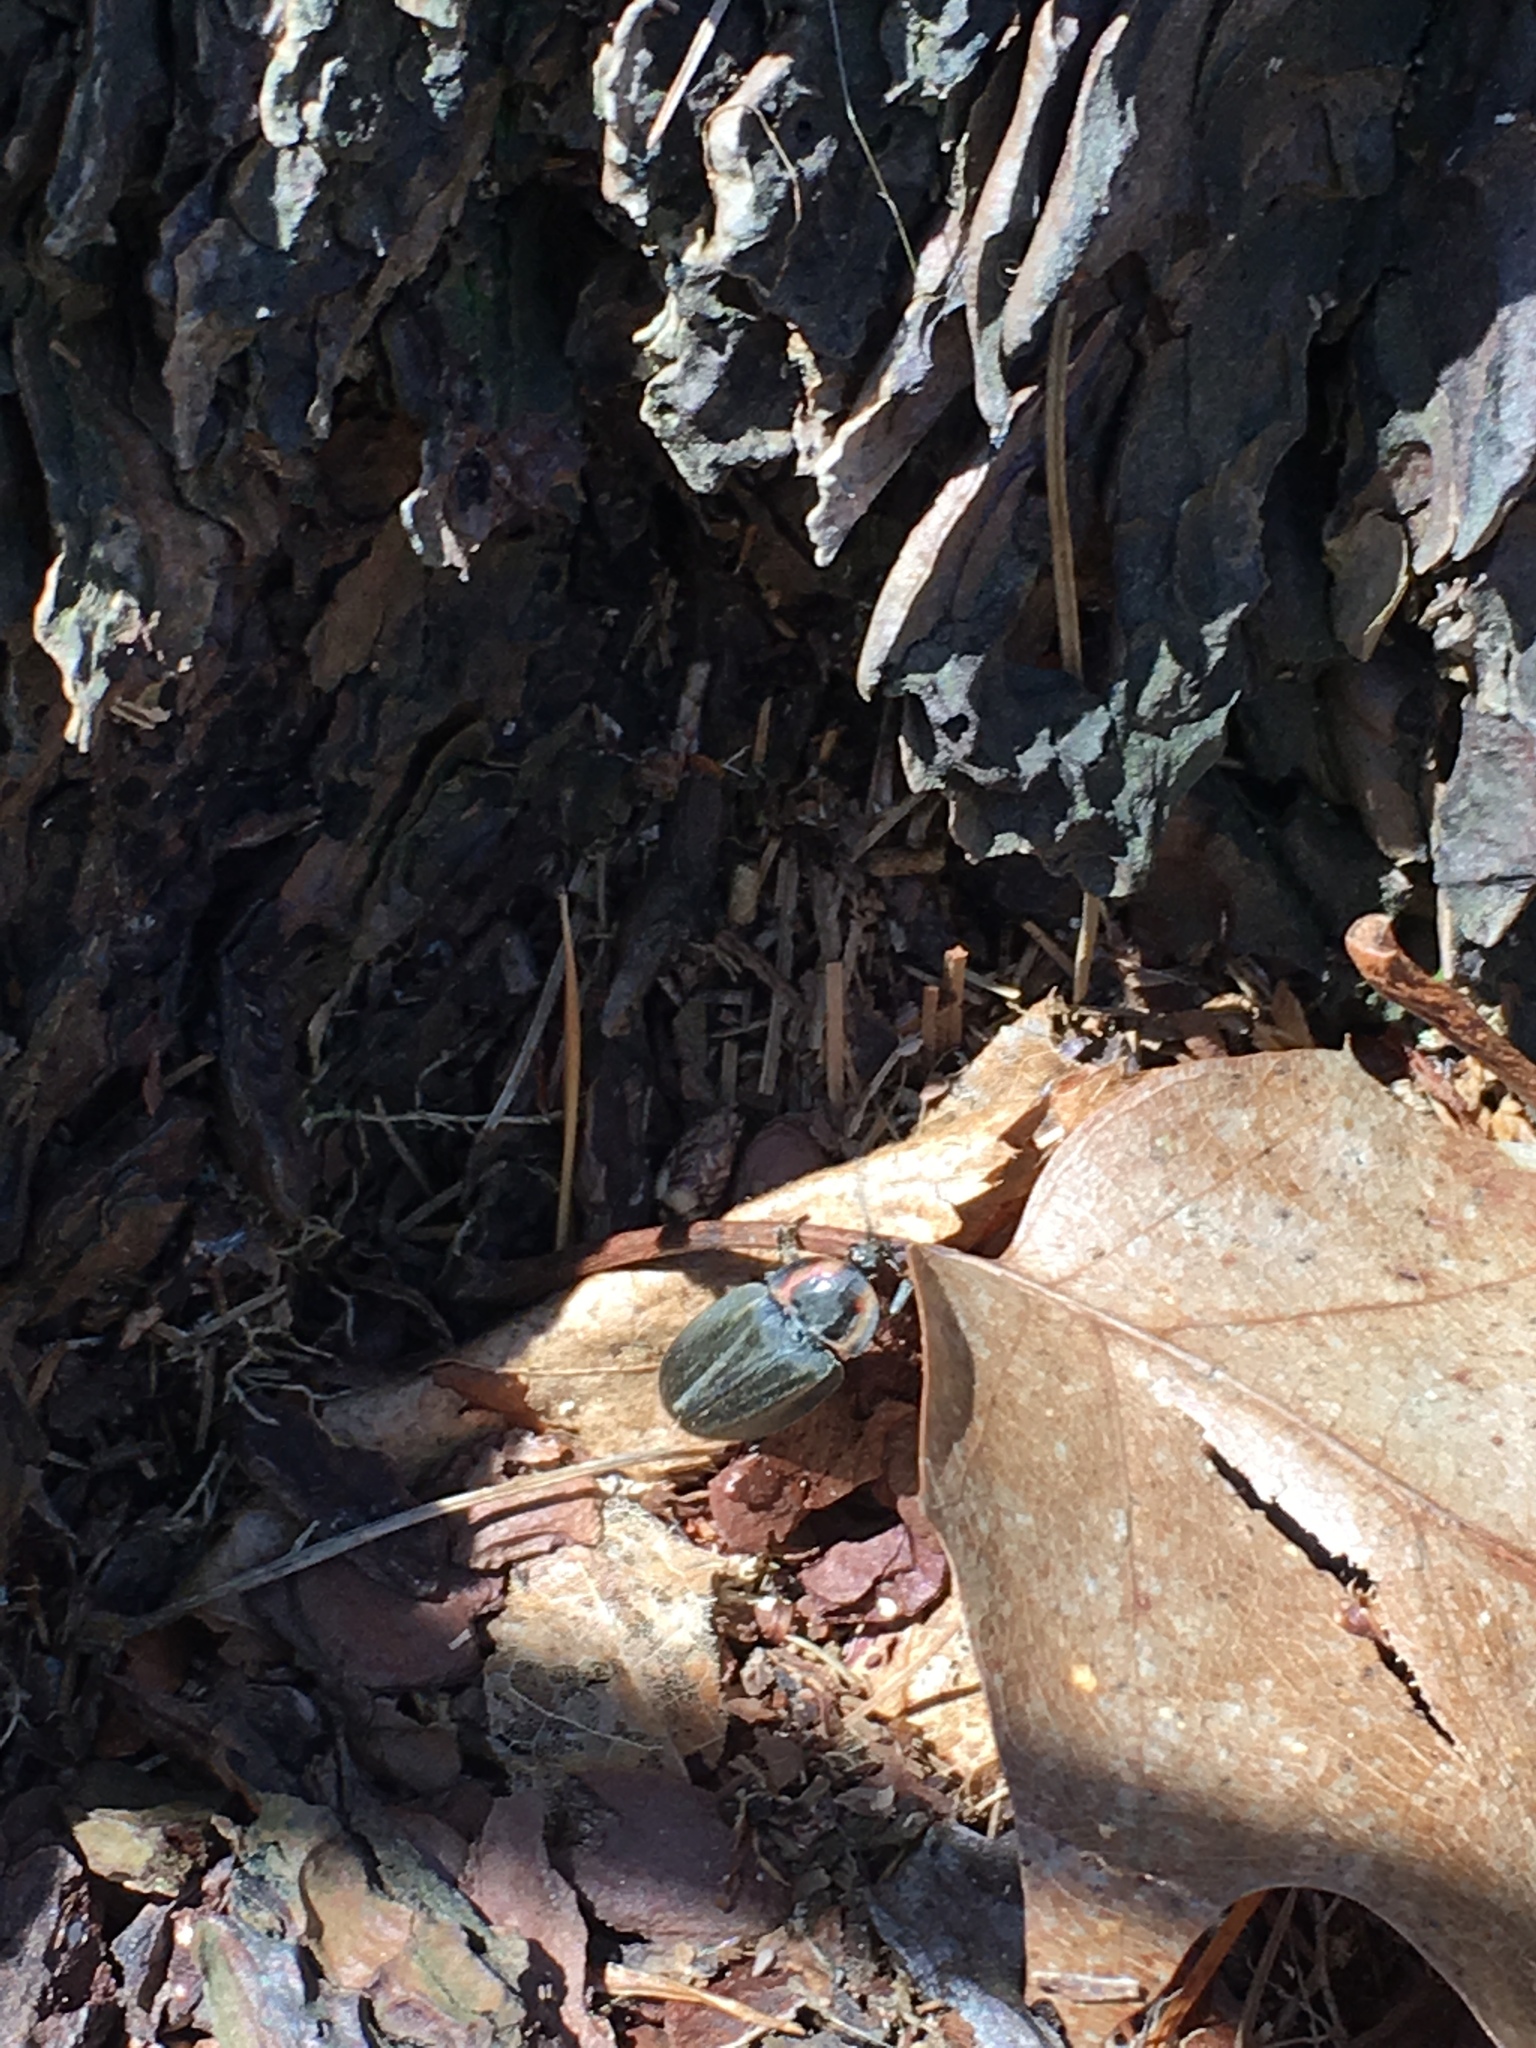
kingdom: Animalia
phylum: Arthropoda
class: Insecta
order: Coleoptera
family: Lampyridae
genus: Photinus
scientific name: Photinus corrusca
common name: Winter firefly
